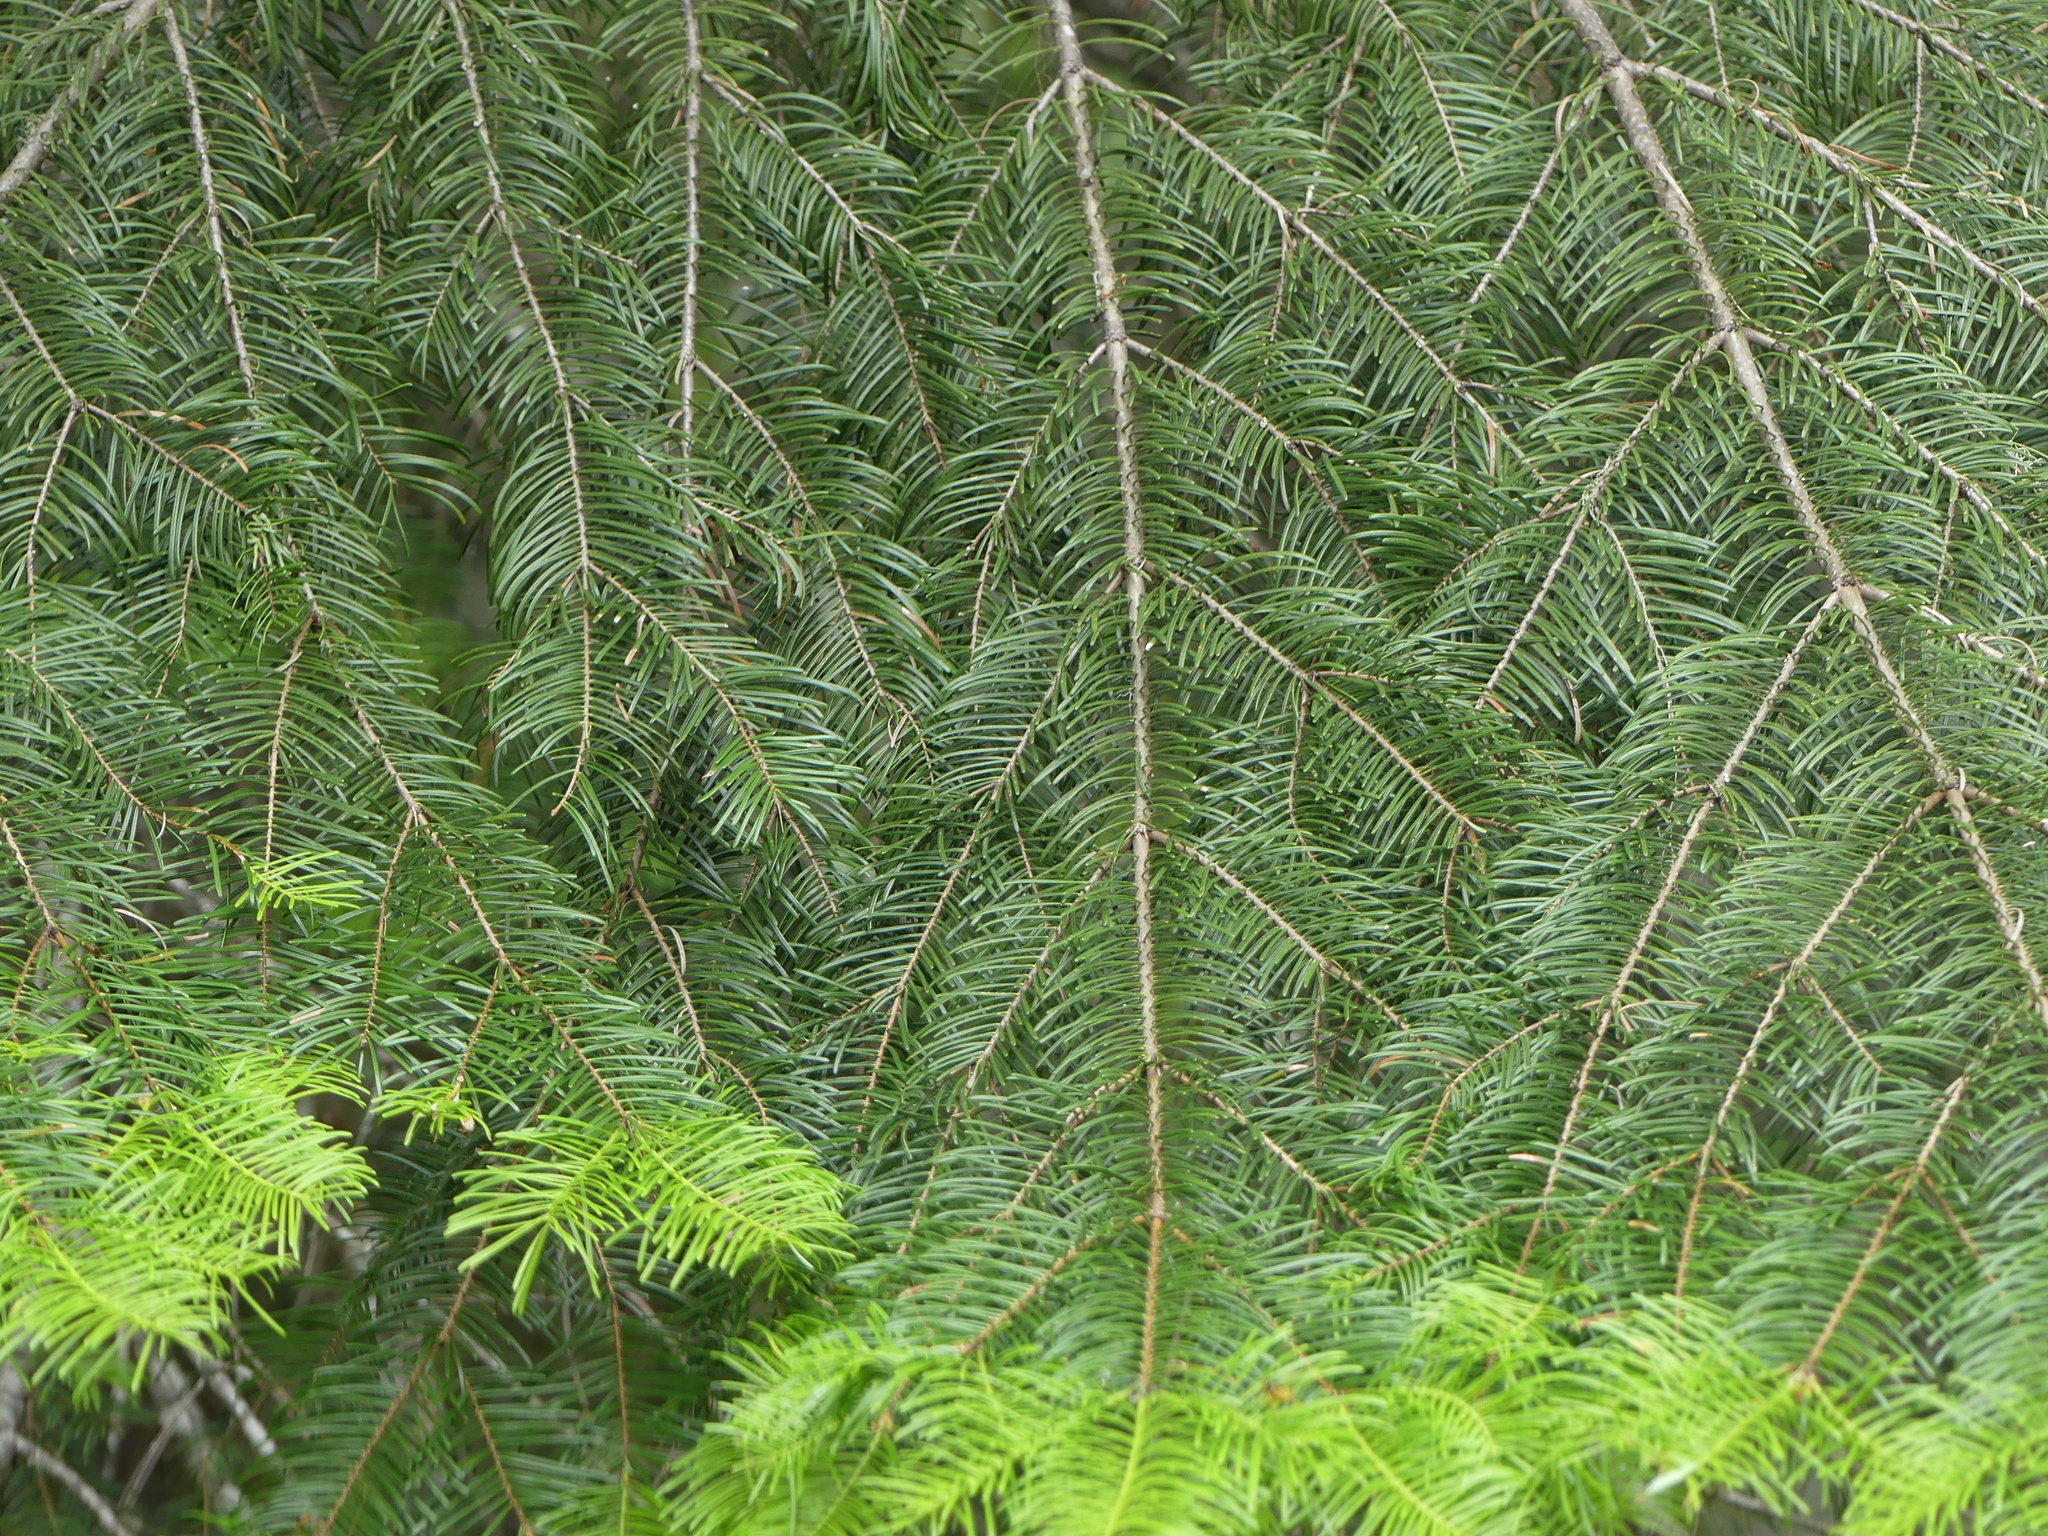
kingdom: Plantae
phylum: Tracheophyta
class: Pinopsida
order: Pinales
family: Pinaceae
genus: Abies
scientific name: Abies grandis
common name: Giant fir
